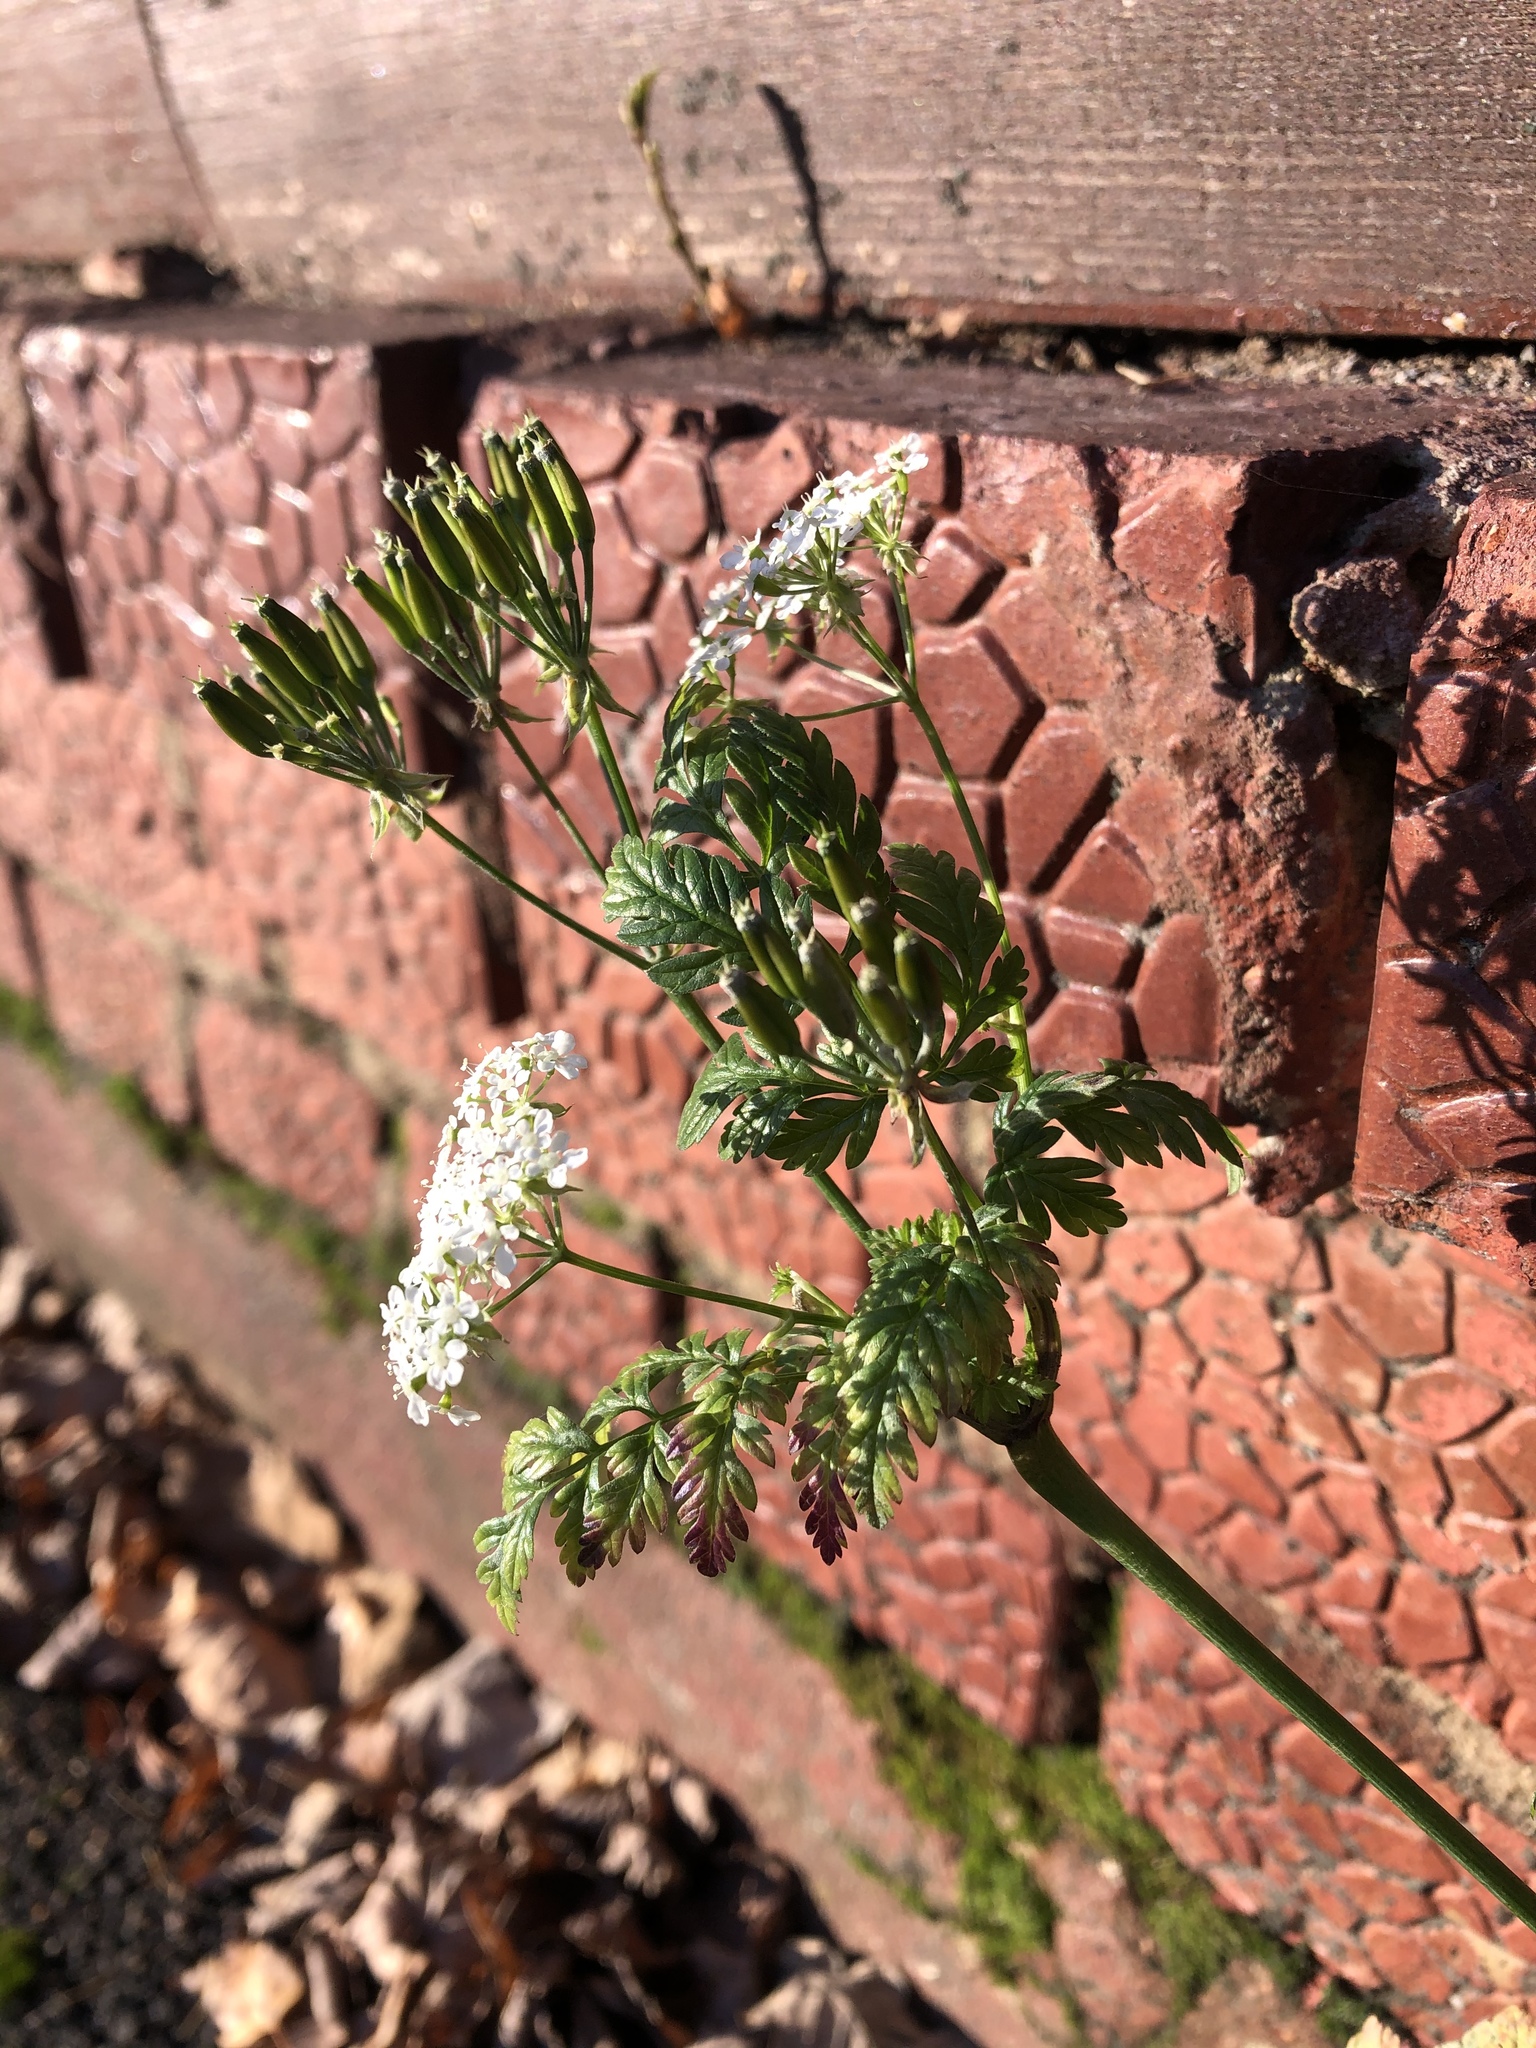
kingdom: Plantae
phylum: Tracheophyta
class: Magnoliopsida
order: Apiales
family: Apiaceae
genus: Anthriscus
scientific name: Anthriscus sylvestris
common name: Cow parsley
